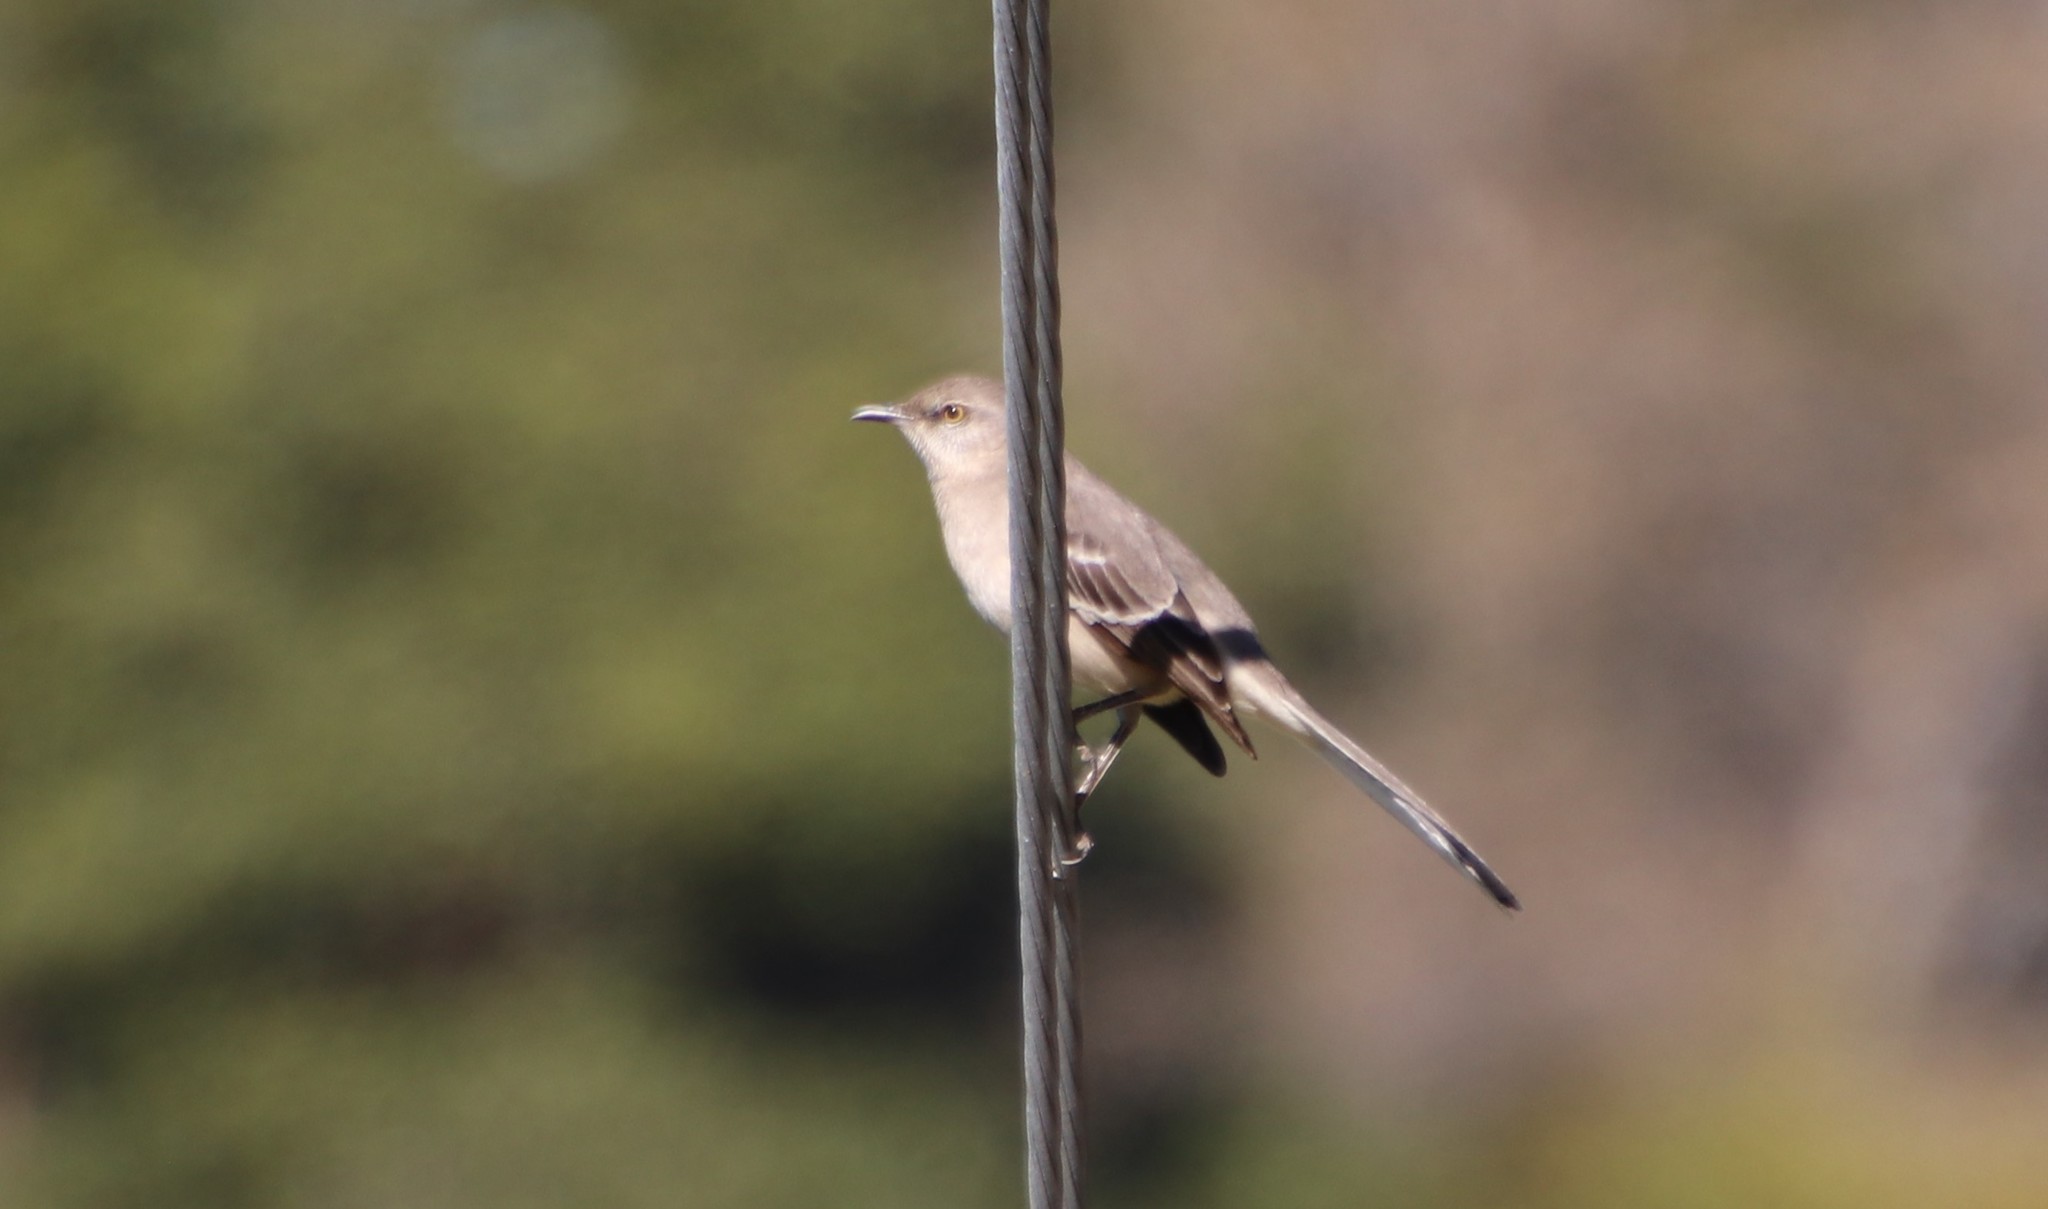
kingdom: Animalia
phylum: Chordata
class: Aves
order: Passeriformes
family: Mimidae
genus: Mimus
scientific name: Mimus polyglottos
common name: Northern mockingbird
